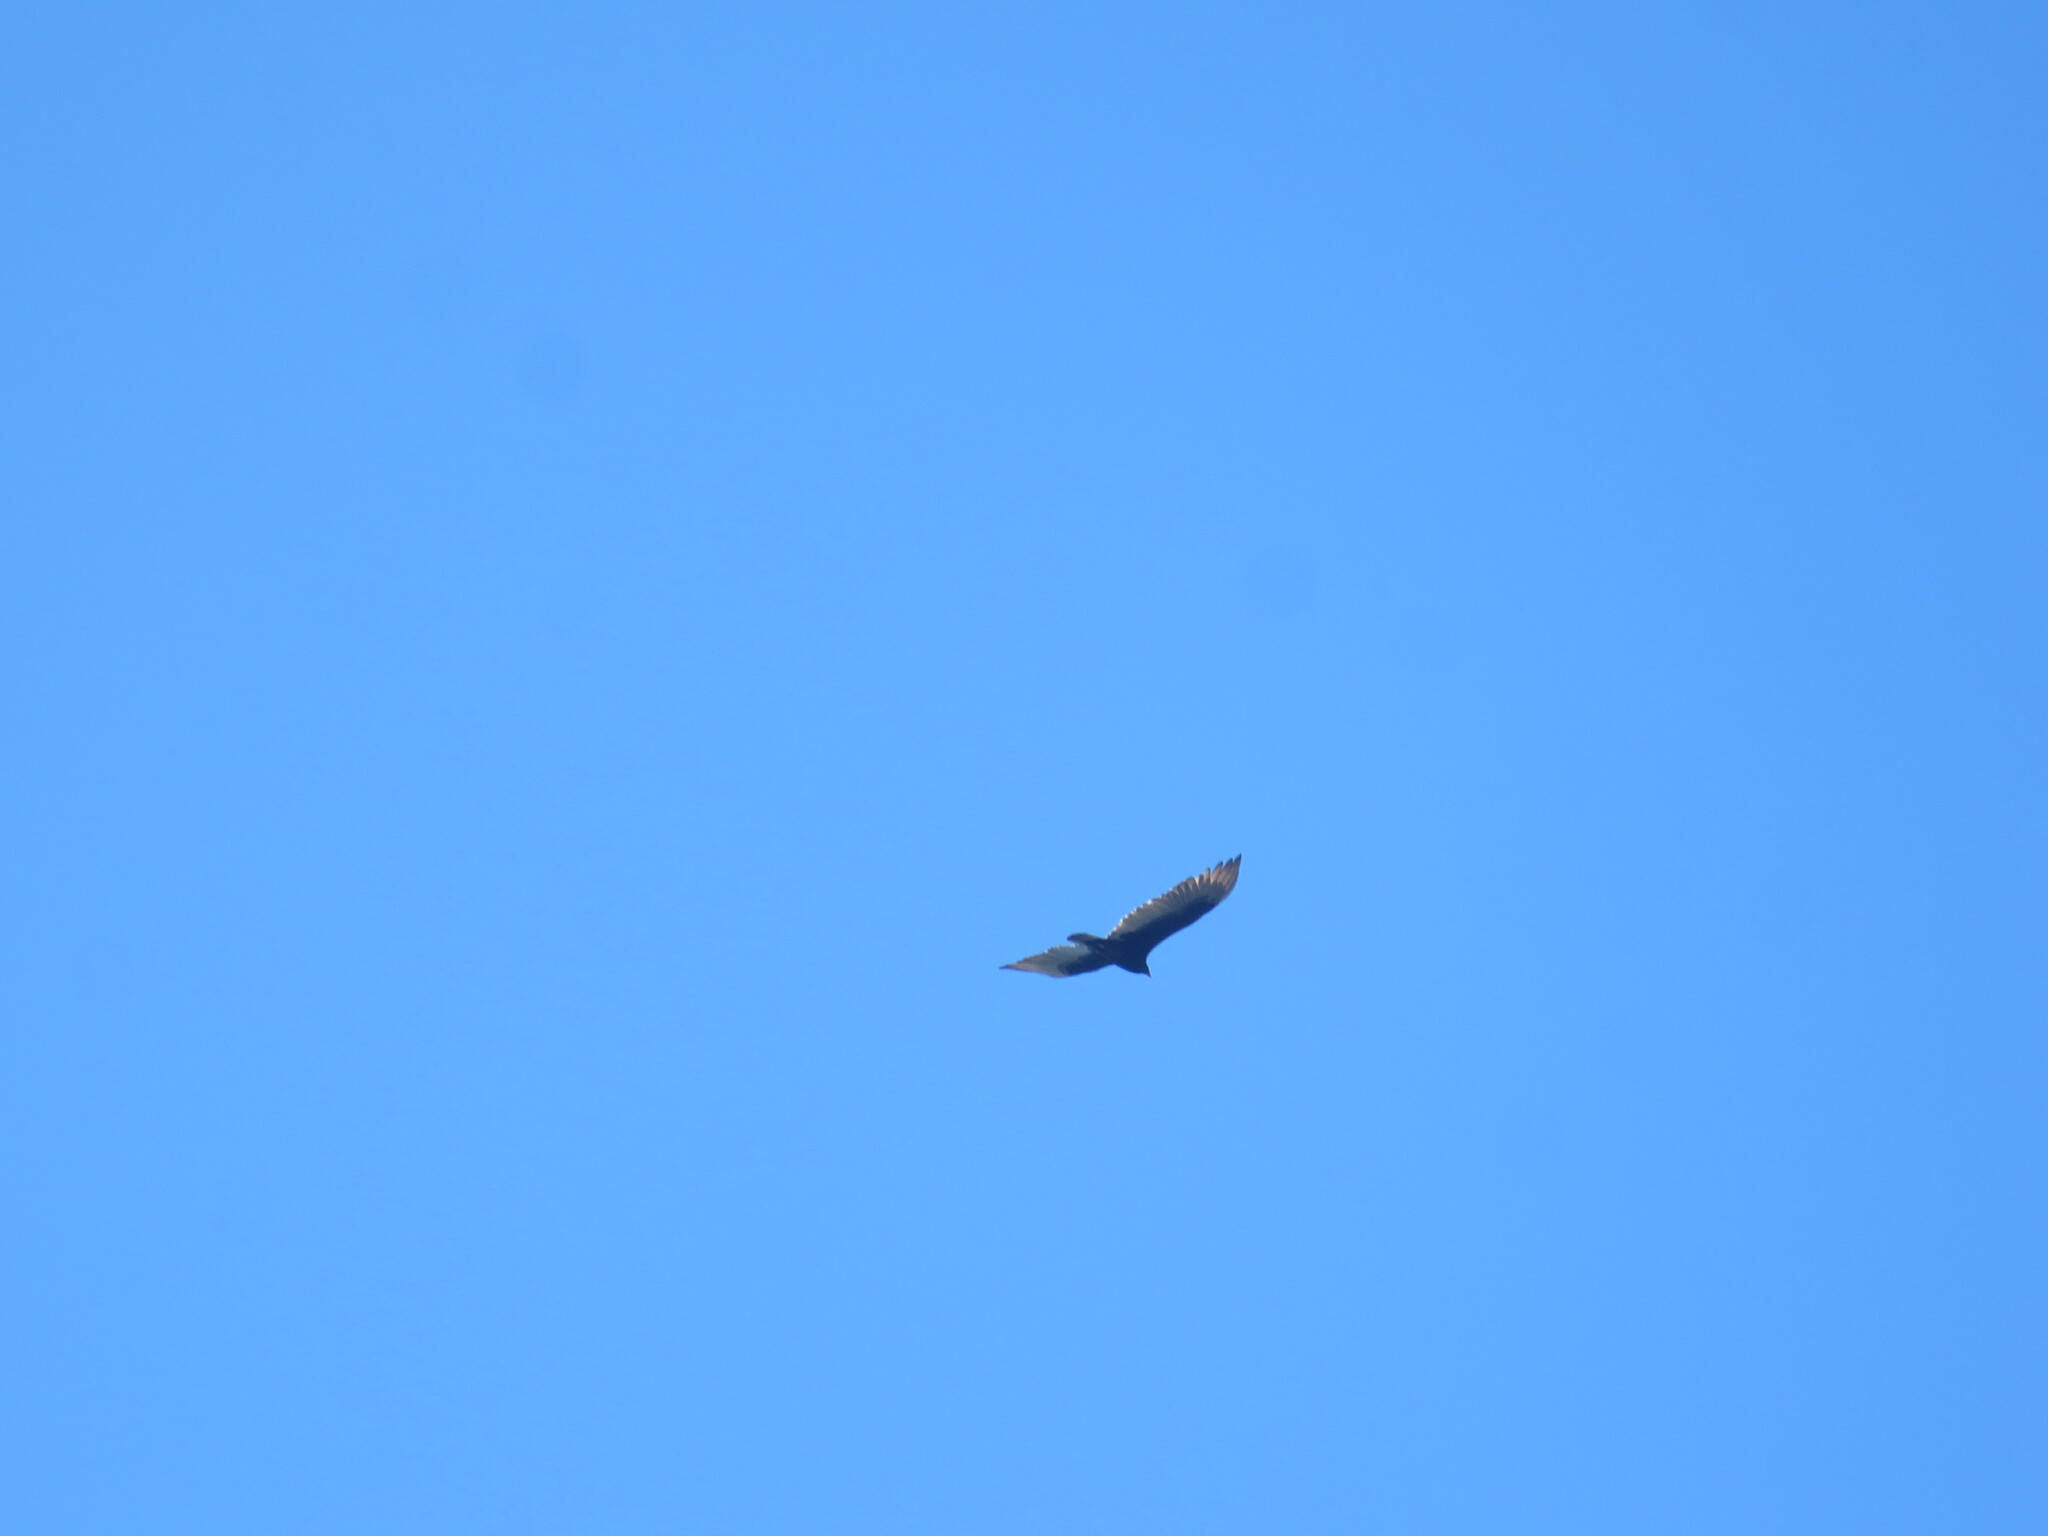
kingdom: Animalia
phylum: Chordata
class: Aves
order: Accipitriformes
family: Cathartidae
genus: Cathartes
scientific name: Cathartes aura
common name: Turkey vulture
